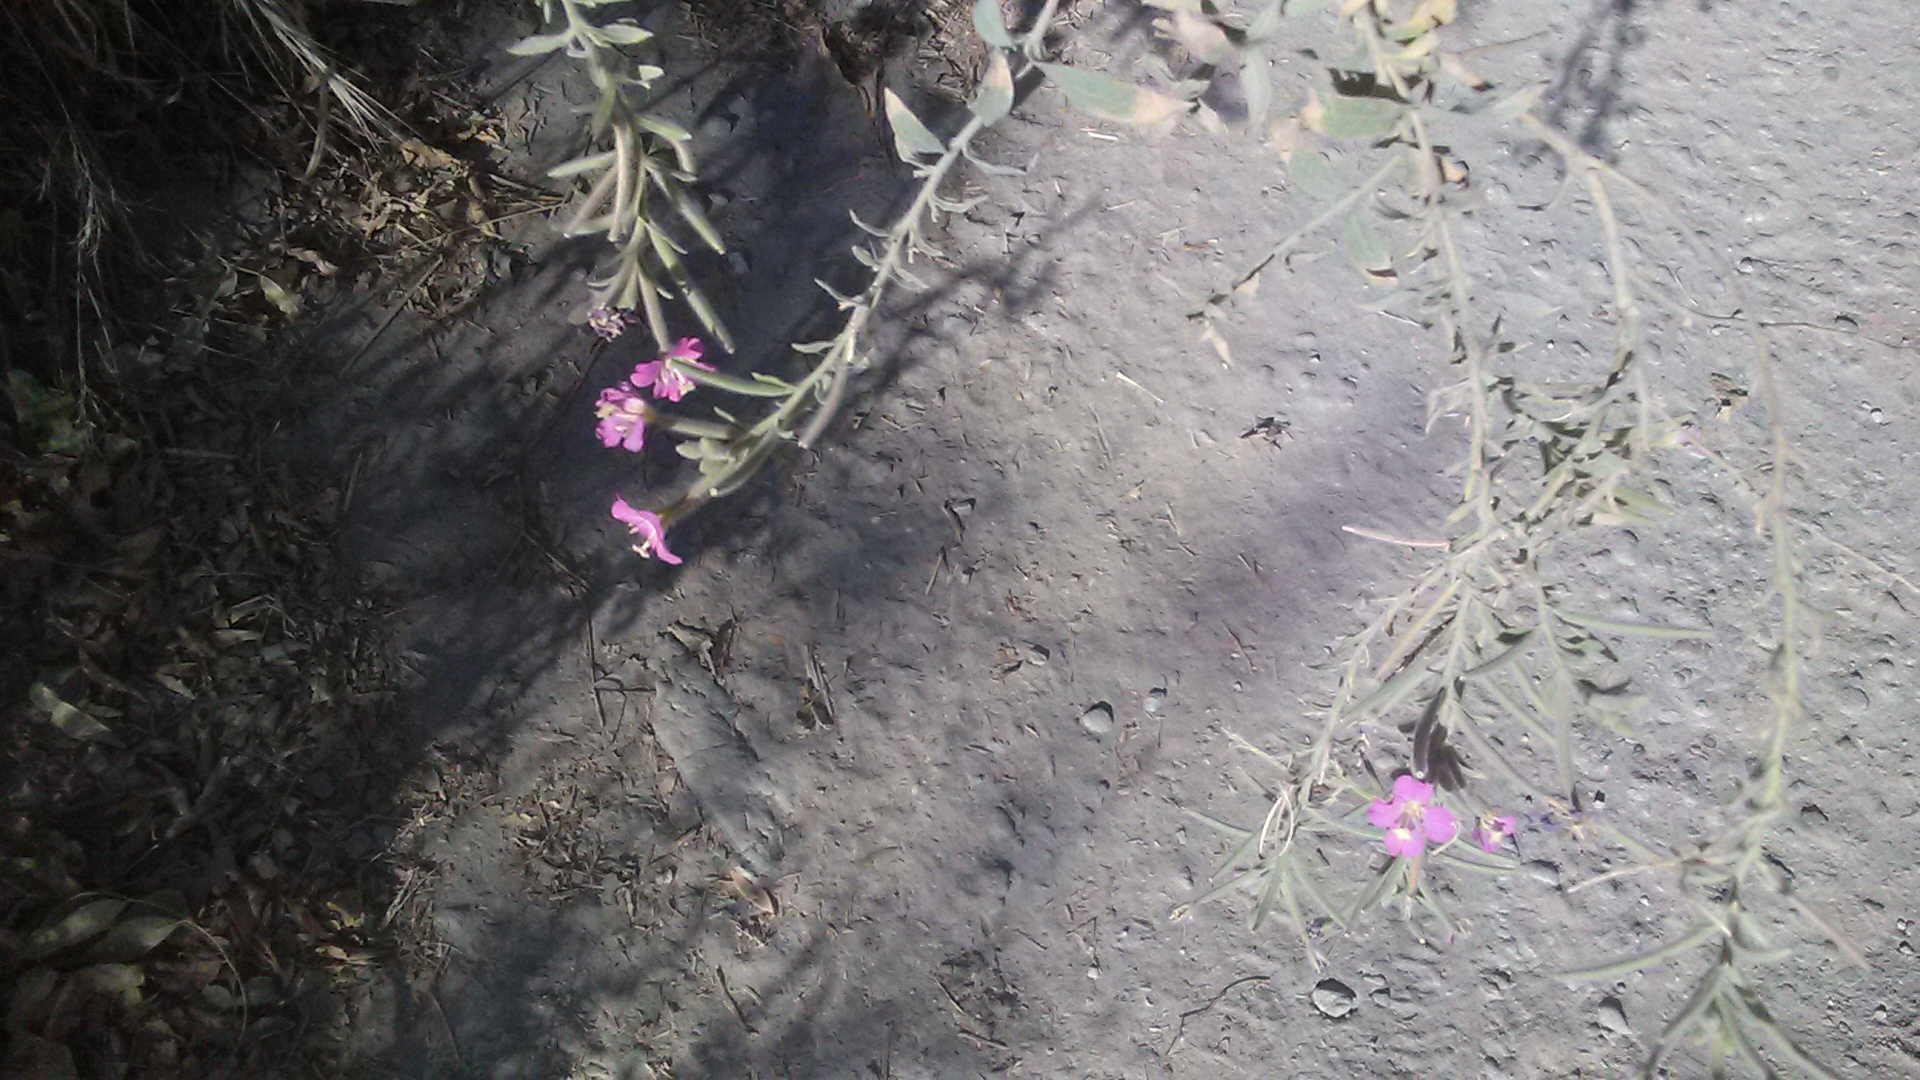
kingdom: Plantae
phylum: Tracheophyta
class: Magnoliopsida
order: Myrtales
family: Onagraceae
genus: Epilobium
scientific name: Epilobium hirsutum
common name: Great willowherb
